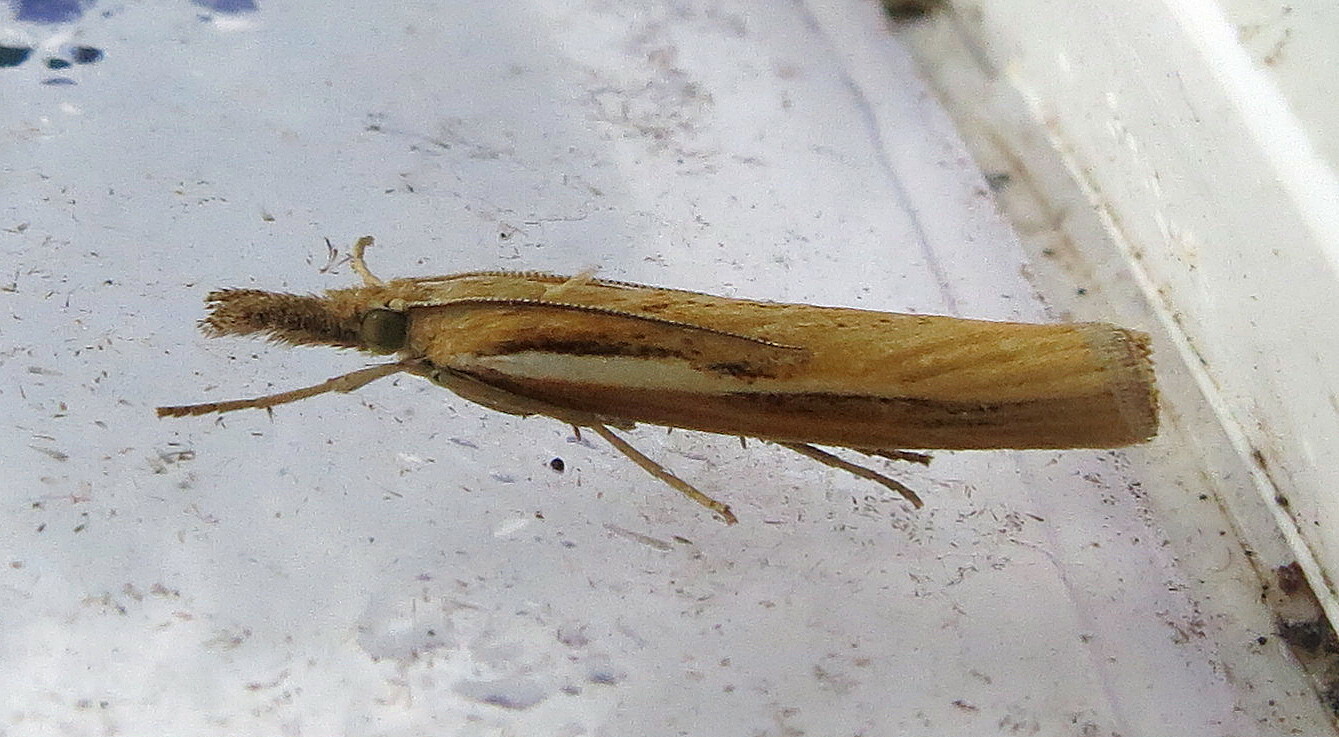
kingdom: Animalia
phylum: Arthropoda
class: Insecta
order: Lepidoptera
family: Crambidae
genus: Agriphila
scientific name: Agriphila tristellus
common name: Common grass-veneer
